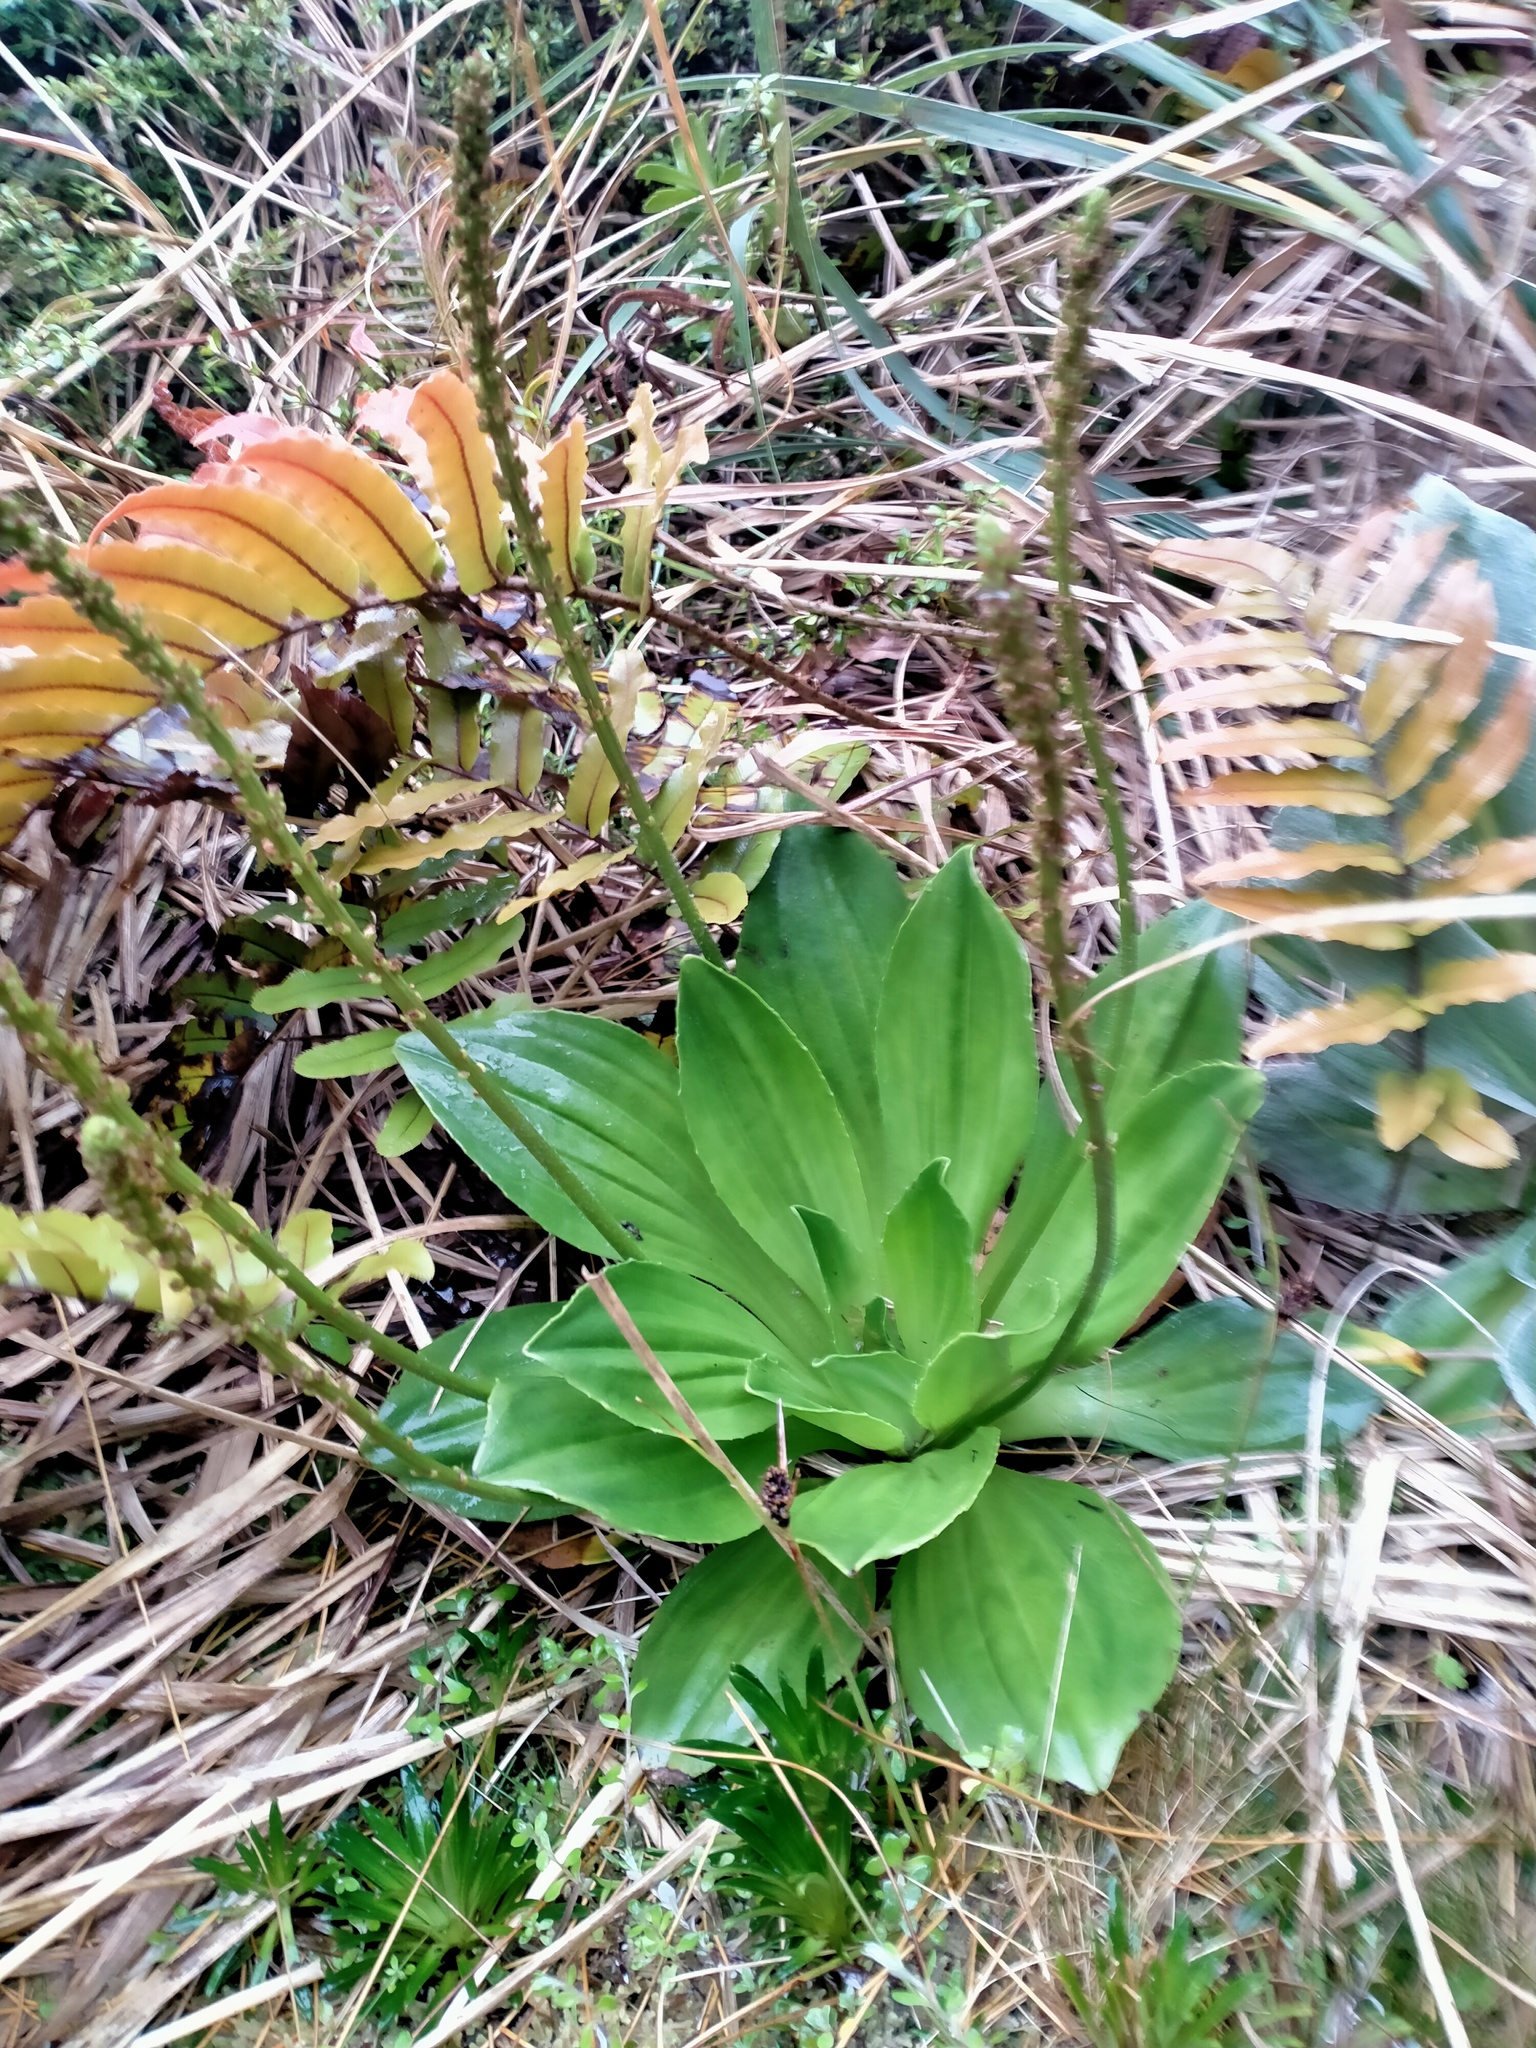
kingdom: Plantae
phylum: Tracheophyta
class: Magnoliopsida
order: Lamiales
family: Plantaginaceae
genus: Plantago
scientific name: Plantago aucklandica
